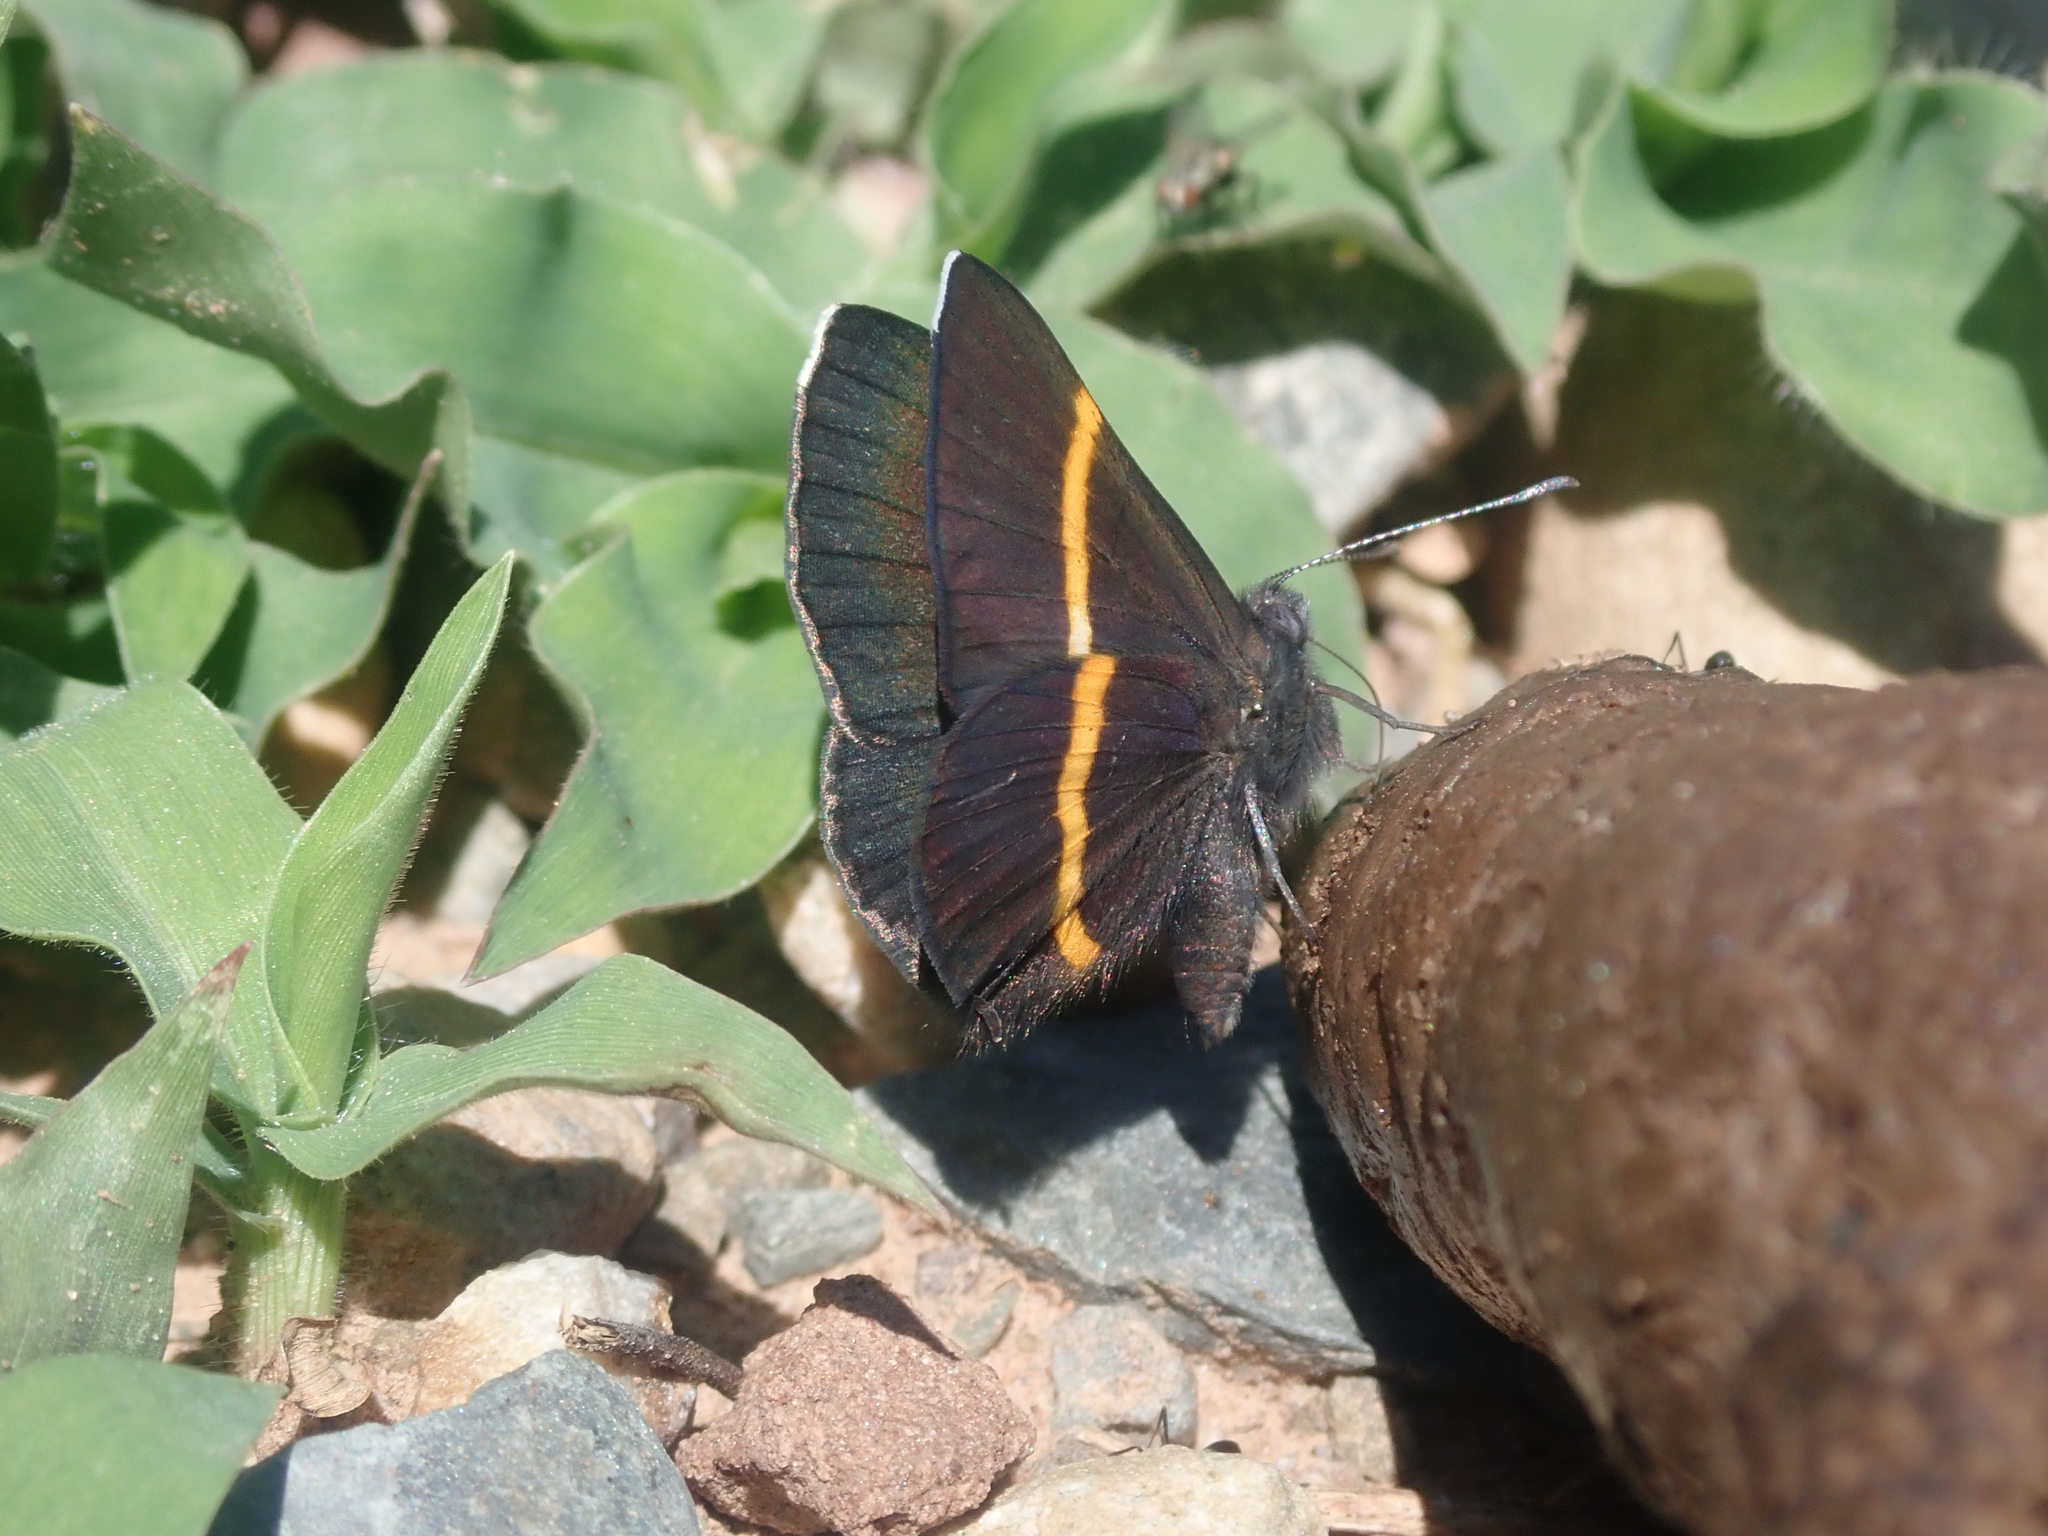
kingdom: Animalia
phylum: Arthropoda
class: Insecta
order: Lepidoptera
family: Riodinidae
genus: Parcella
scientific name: Parcella amarynthina
